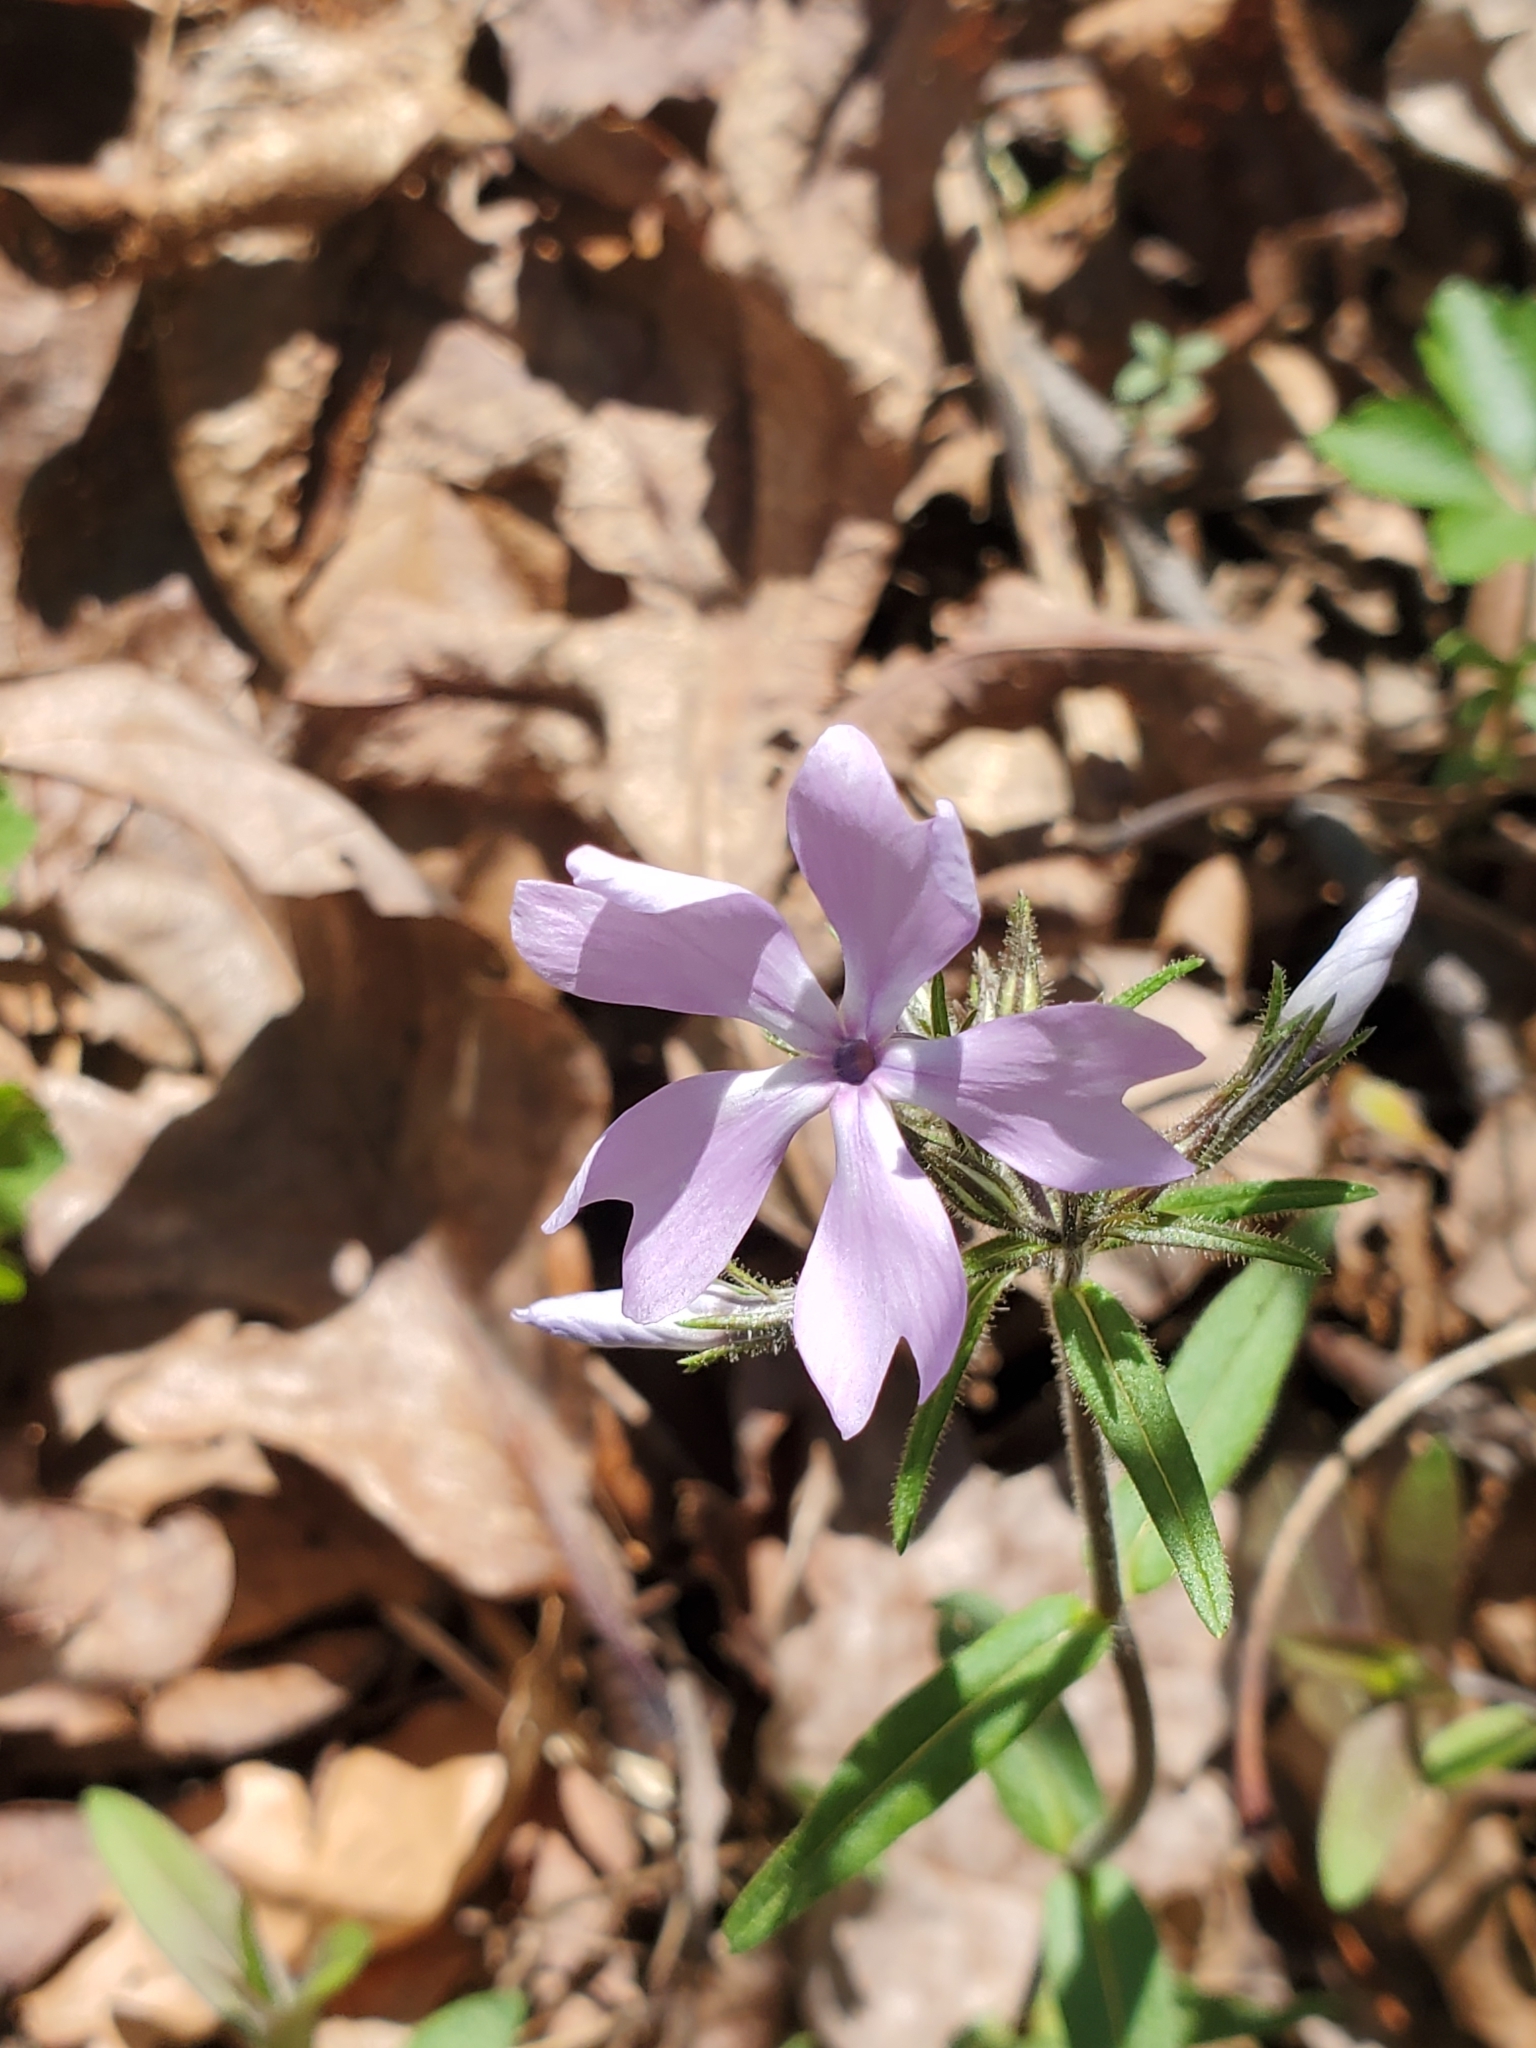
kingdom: Plantae
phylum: Tracheophyta
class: Magnoliopsida
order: Ericales
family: Polemoniaceae
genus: Phlox
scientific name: Phlox divaricata
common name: Blue phlox
